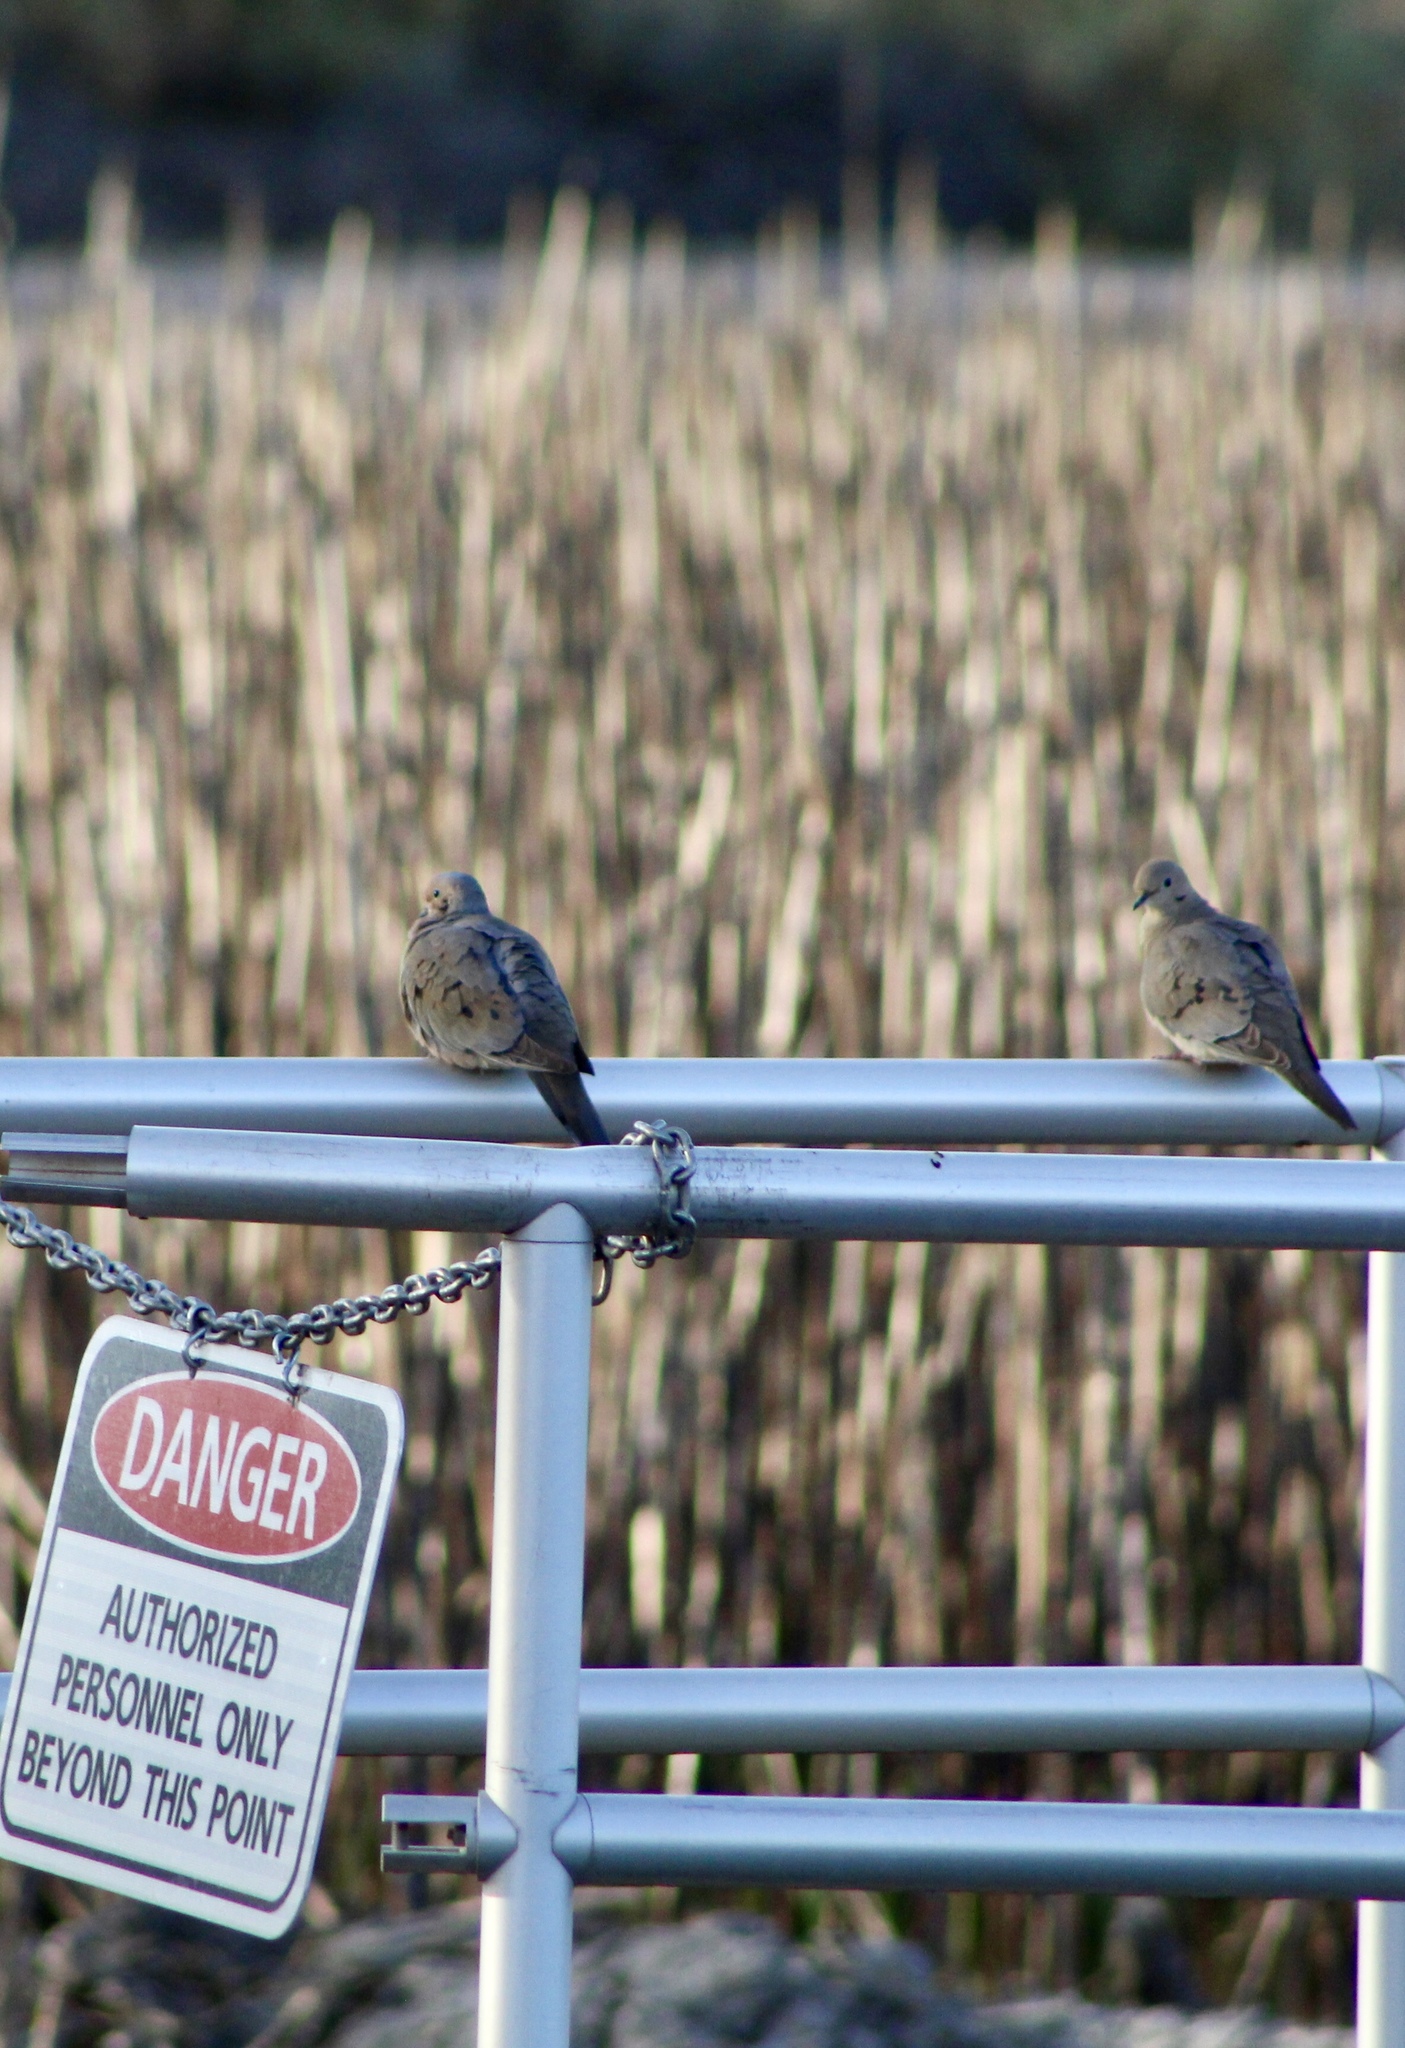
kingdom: Animalia
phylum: Chordata
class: Aves
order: Columbiformes
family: Columbidae
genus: Zenaida
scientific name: Zenaida macroura
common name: Mourning dove
